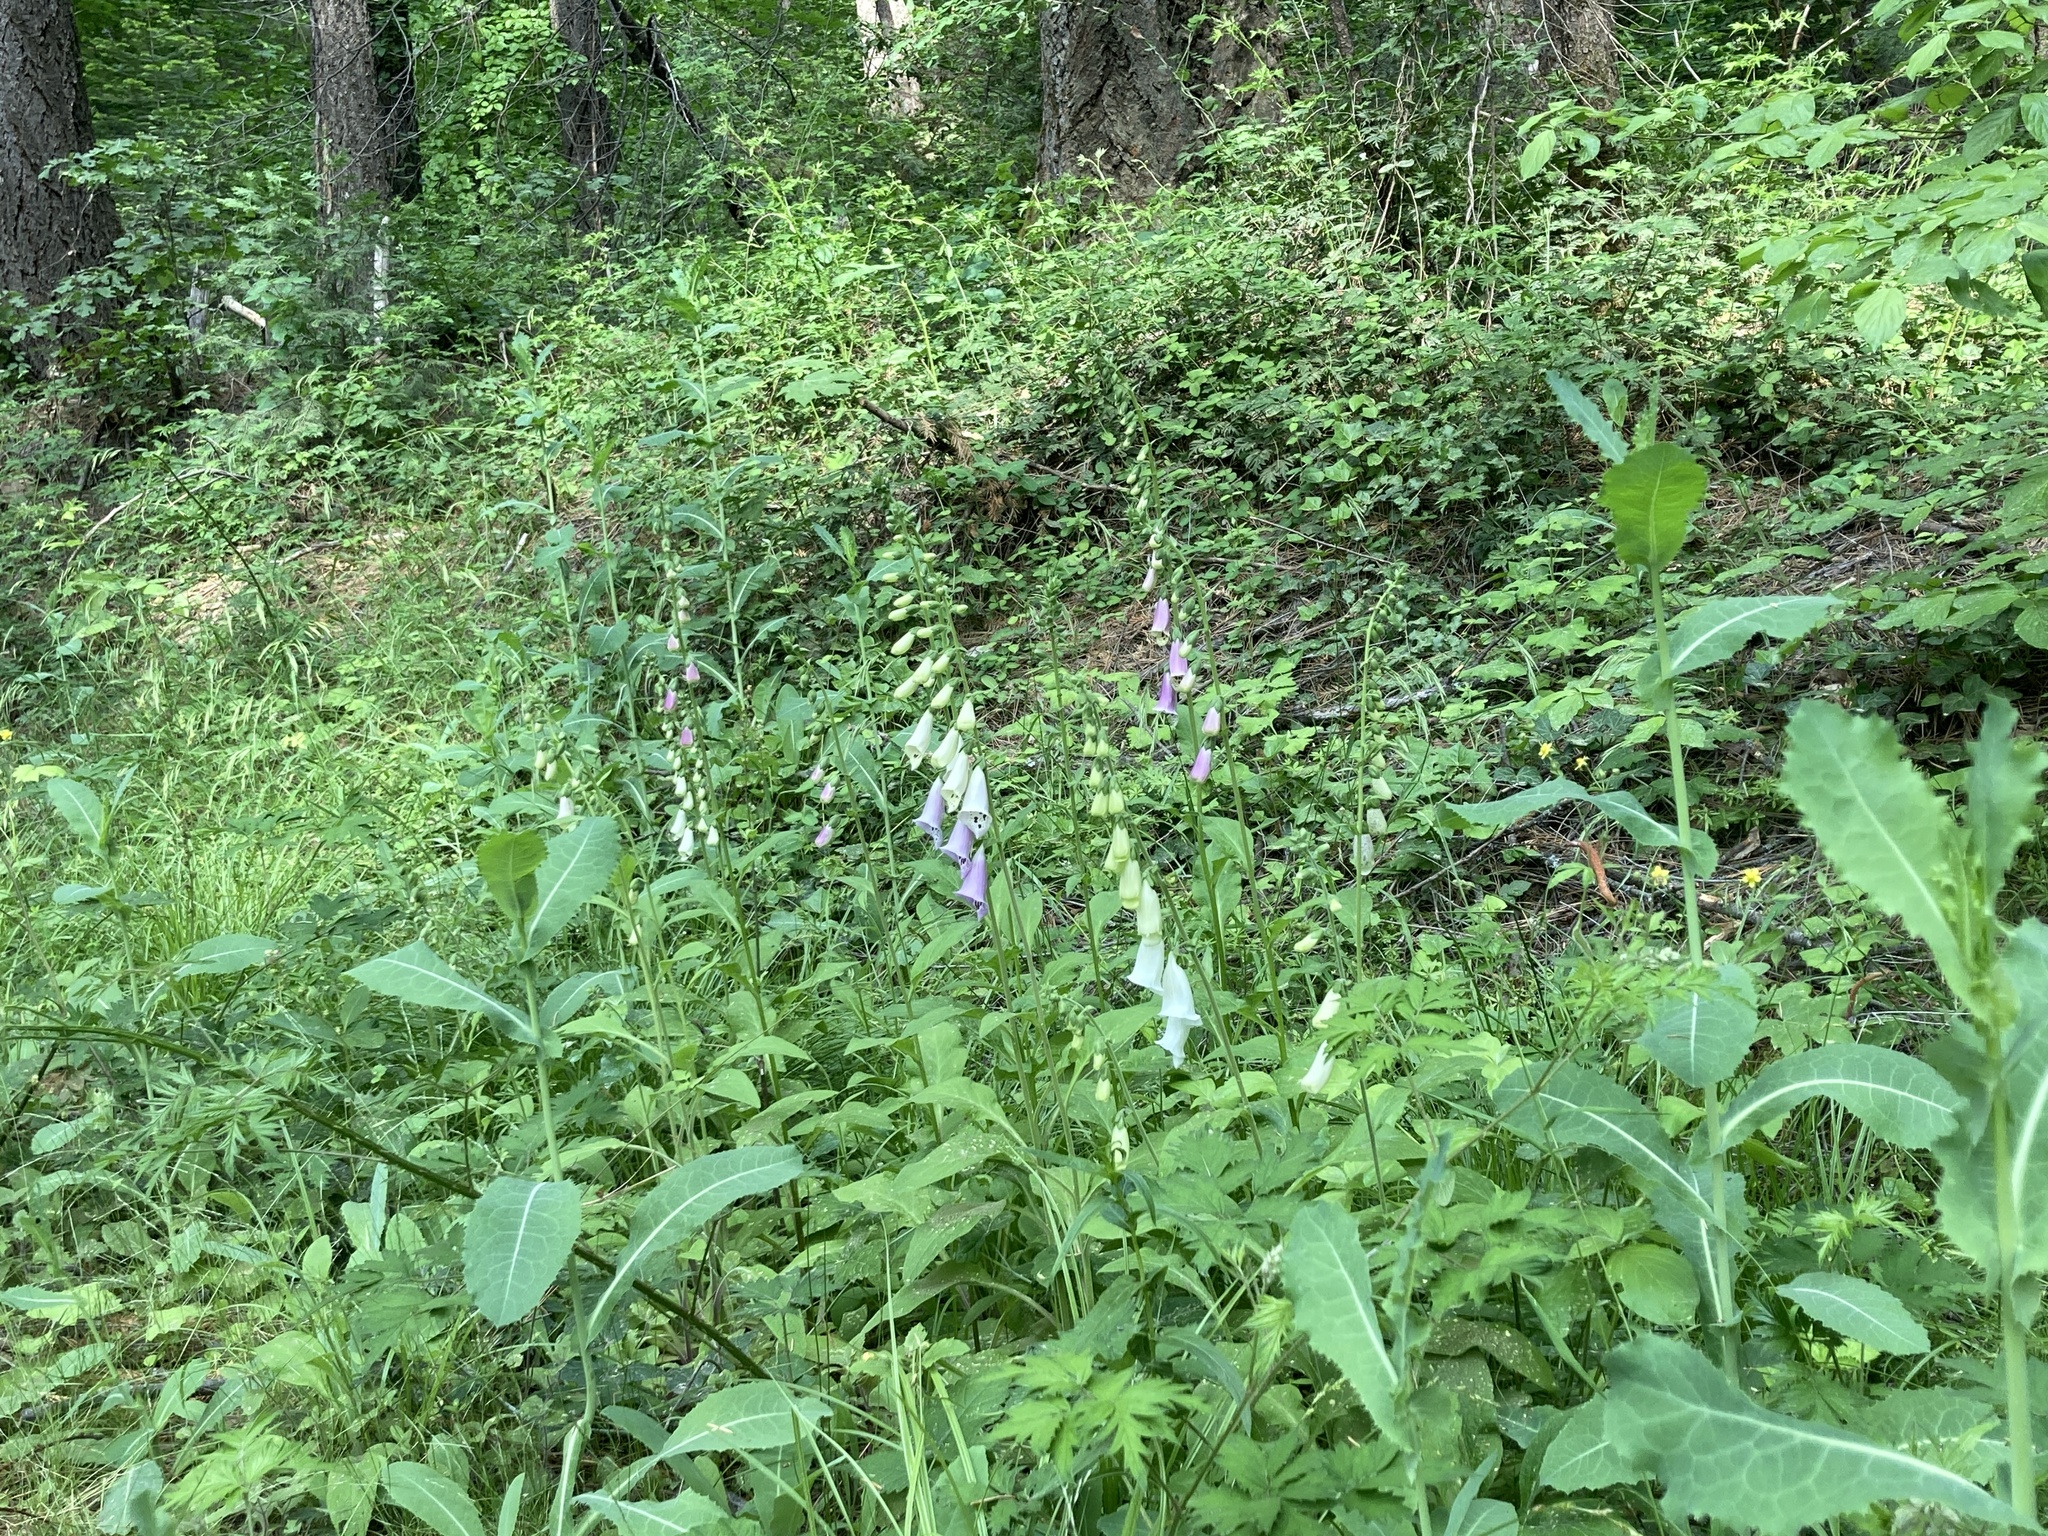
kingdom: Plantae
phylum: Tracheophyta
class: Magnoliopsida
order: Lamiales
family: Plantaginaceae
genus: Digitalis
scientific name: Digitalis purpurea
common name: Foxglove
